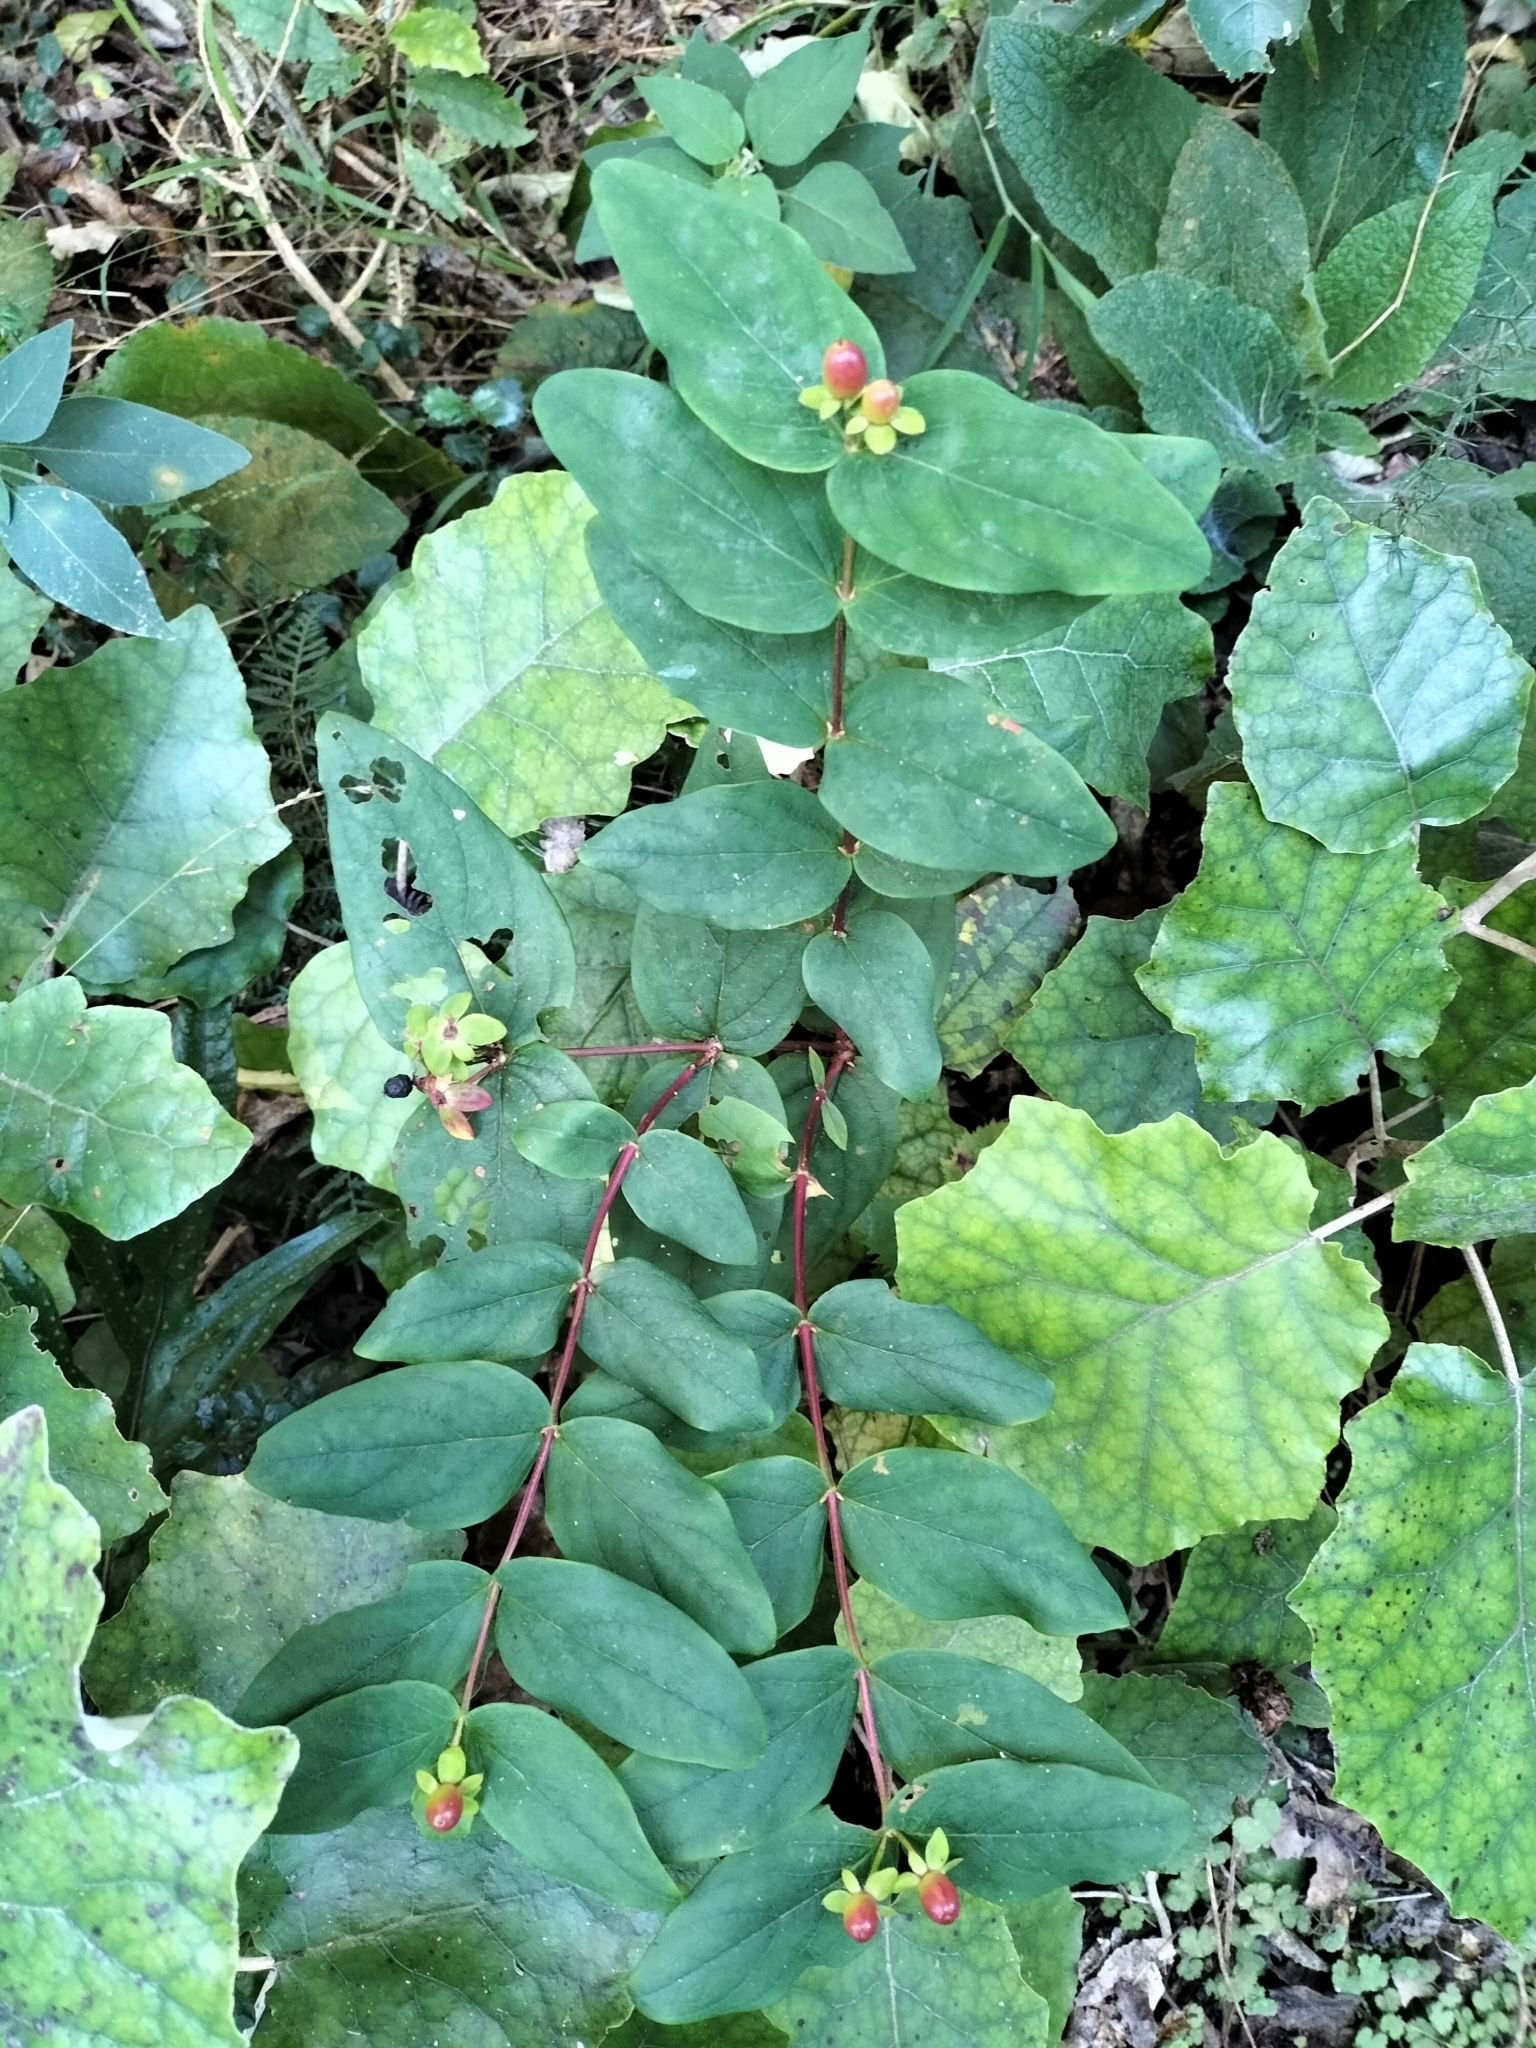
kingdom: Plantae
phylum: Tracheophyta
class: Magnoliopsida
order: Malpighiales
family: Hypericaceae
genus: Hypericum
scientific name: Hypericum androsaemum
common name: Sweet-amber
